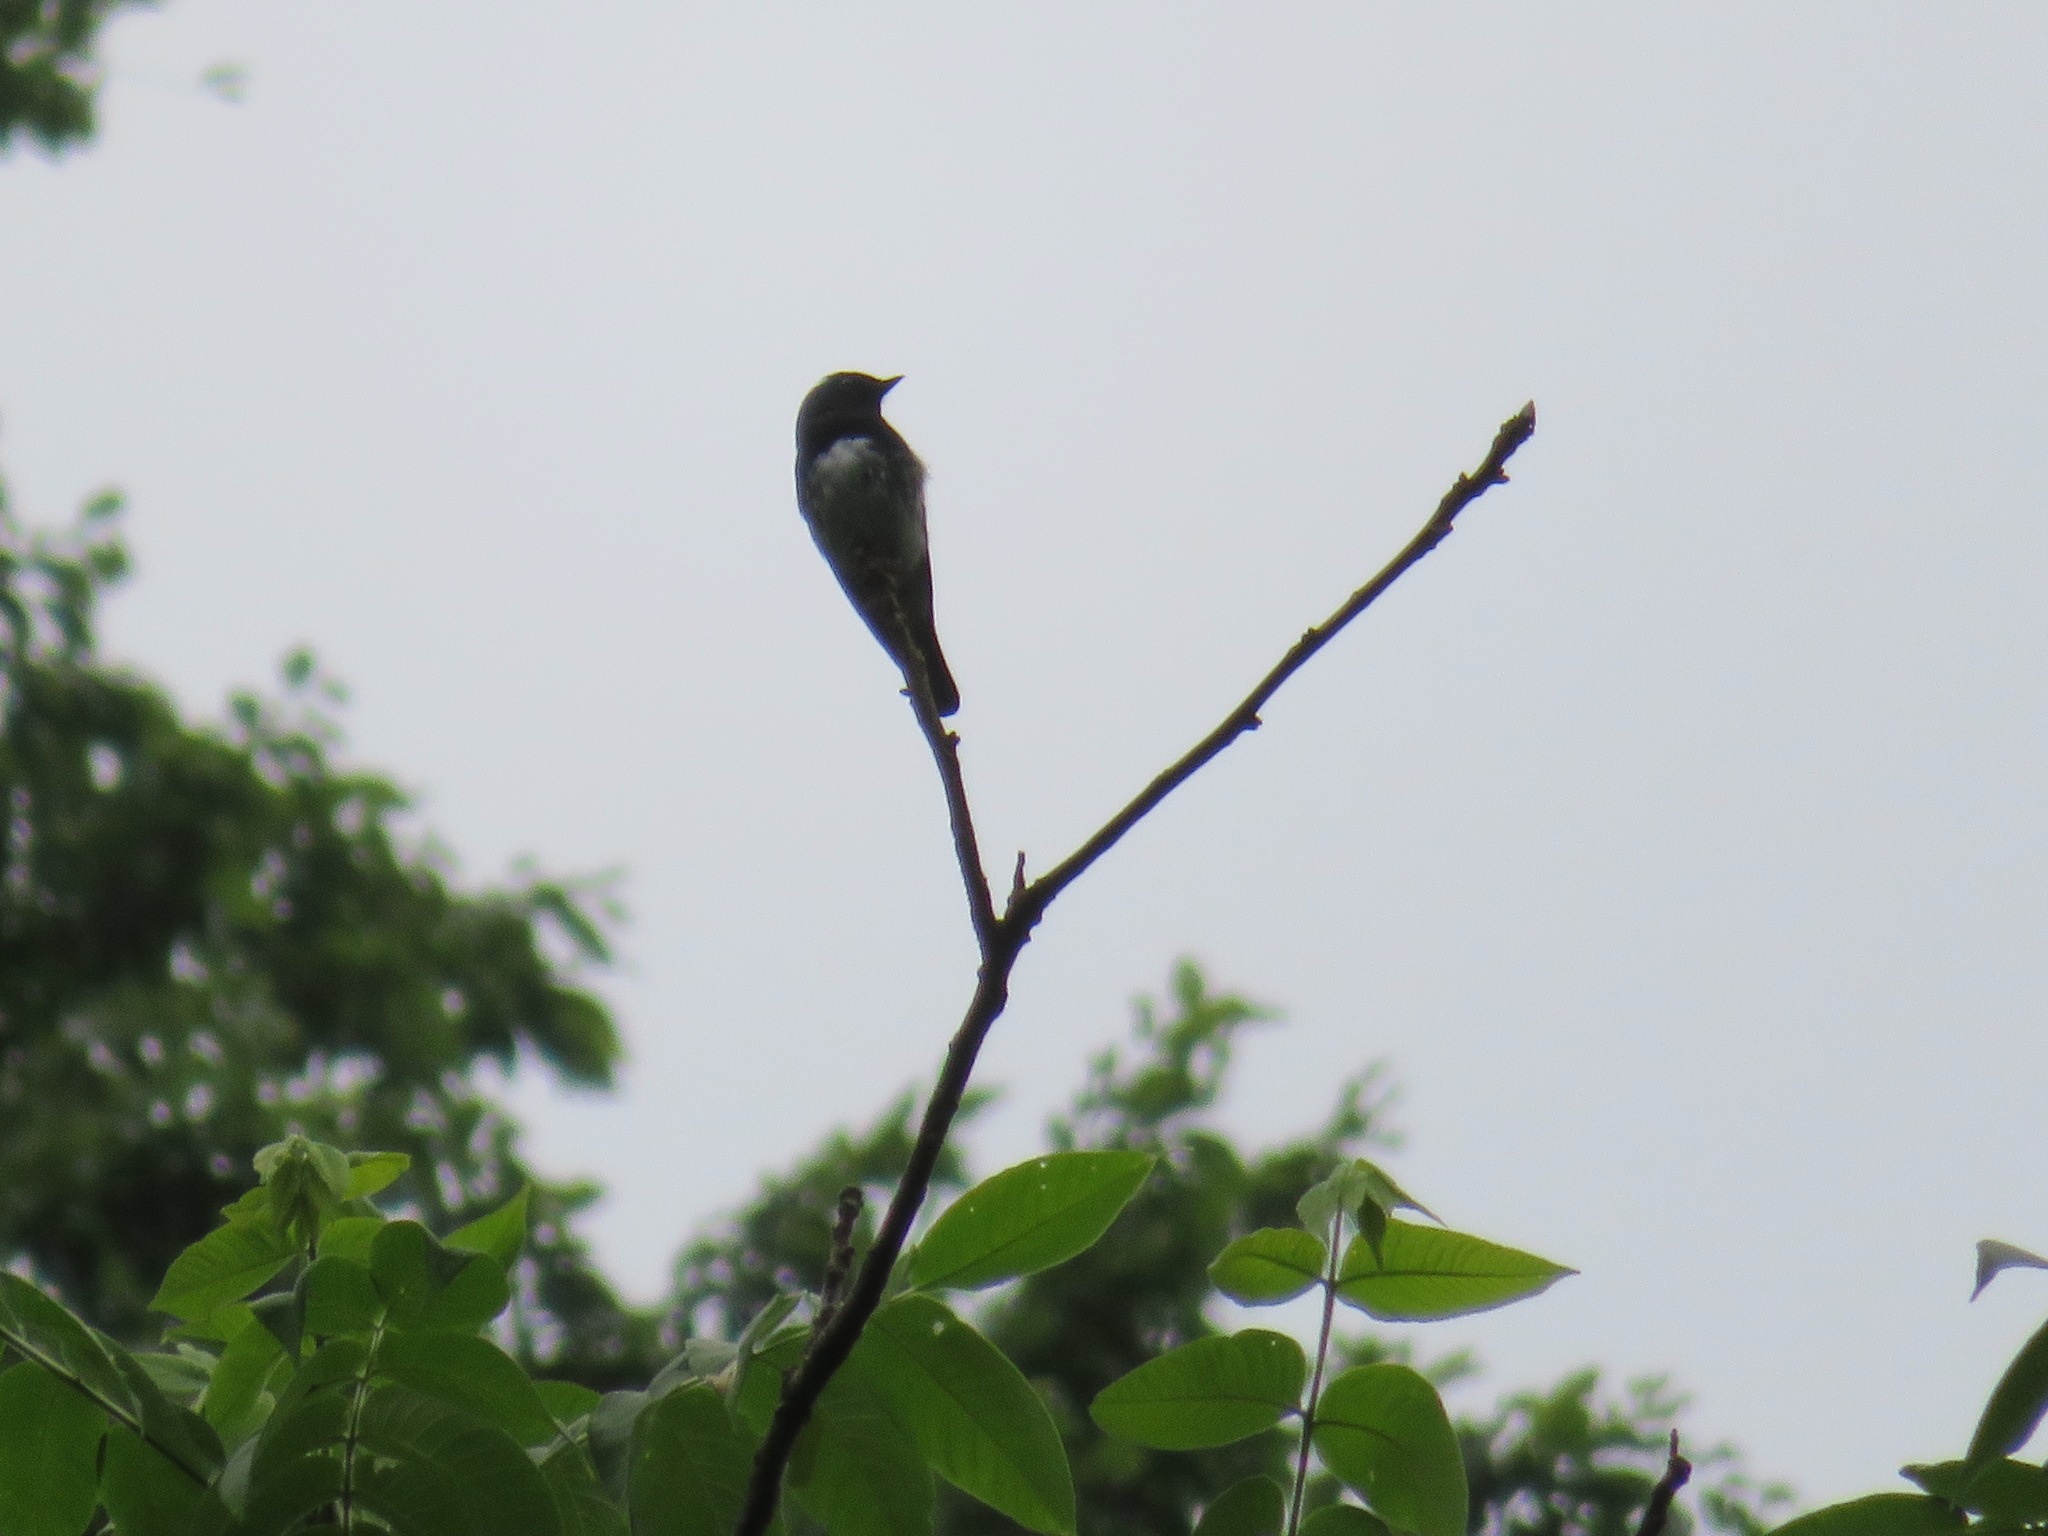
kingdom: Animalia
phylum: Chordata
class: Aves
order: Passeriformes
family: Muscicapidae
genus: Cyanoptila
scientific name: Cyanoptila cyanomelana
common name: Blue-and-white flycatcher
